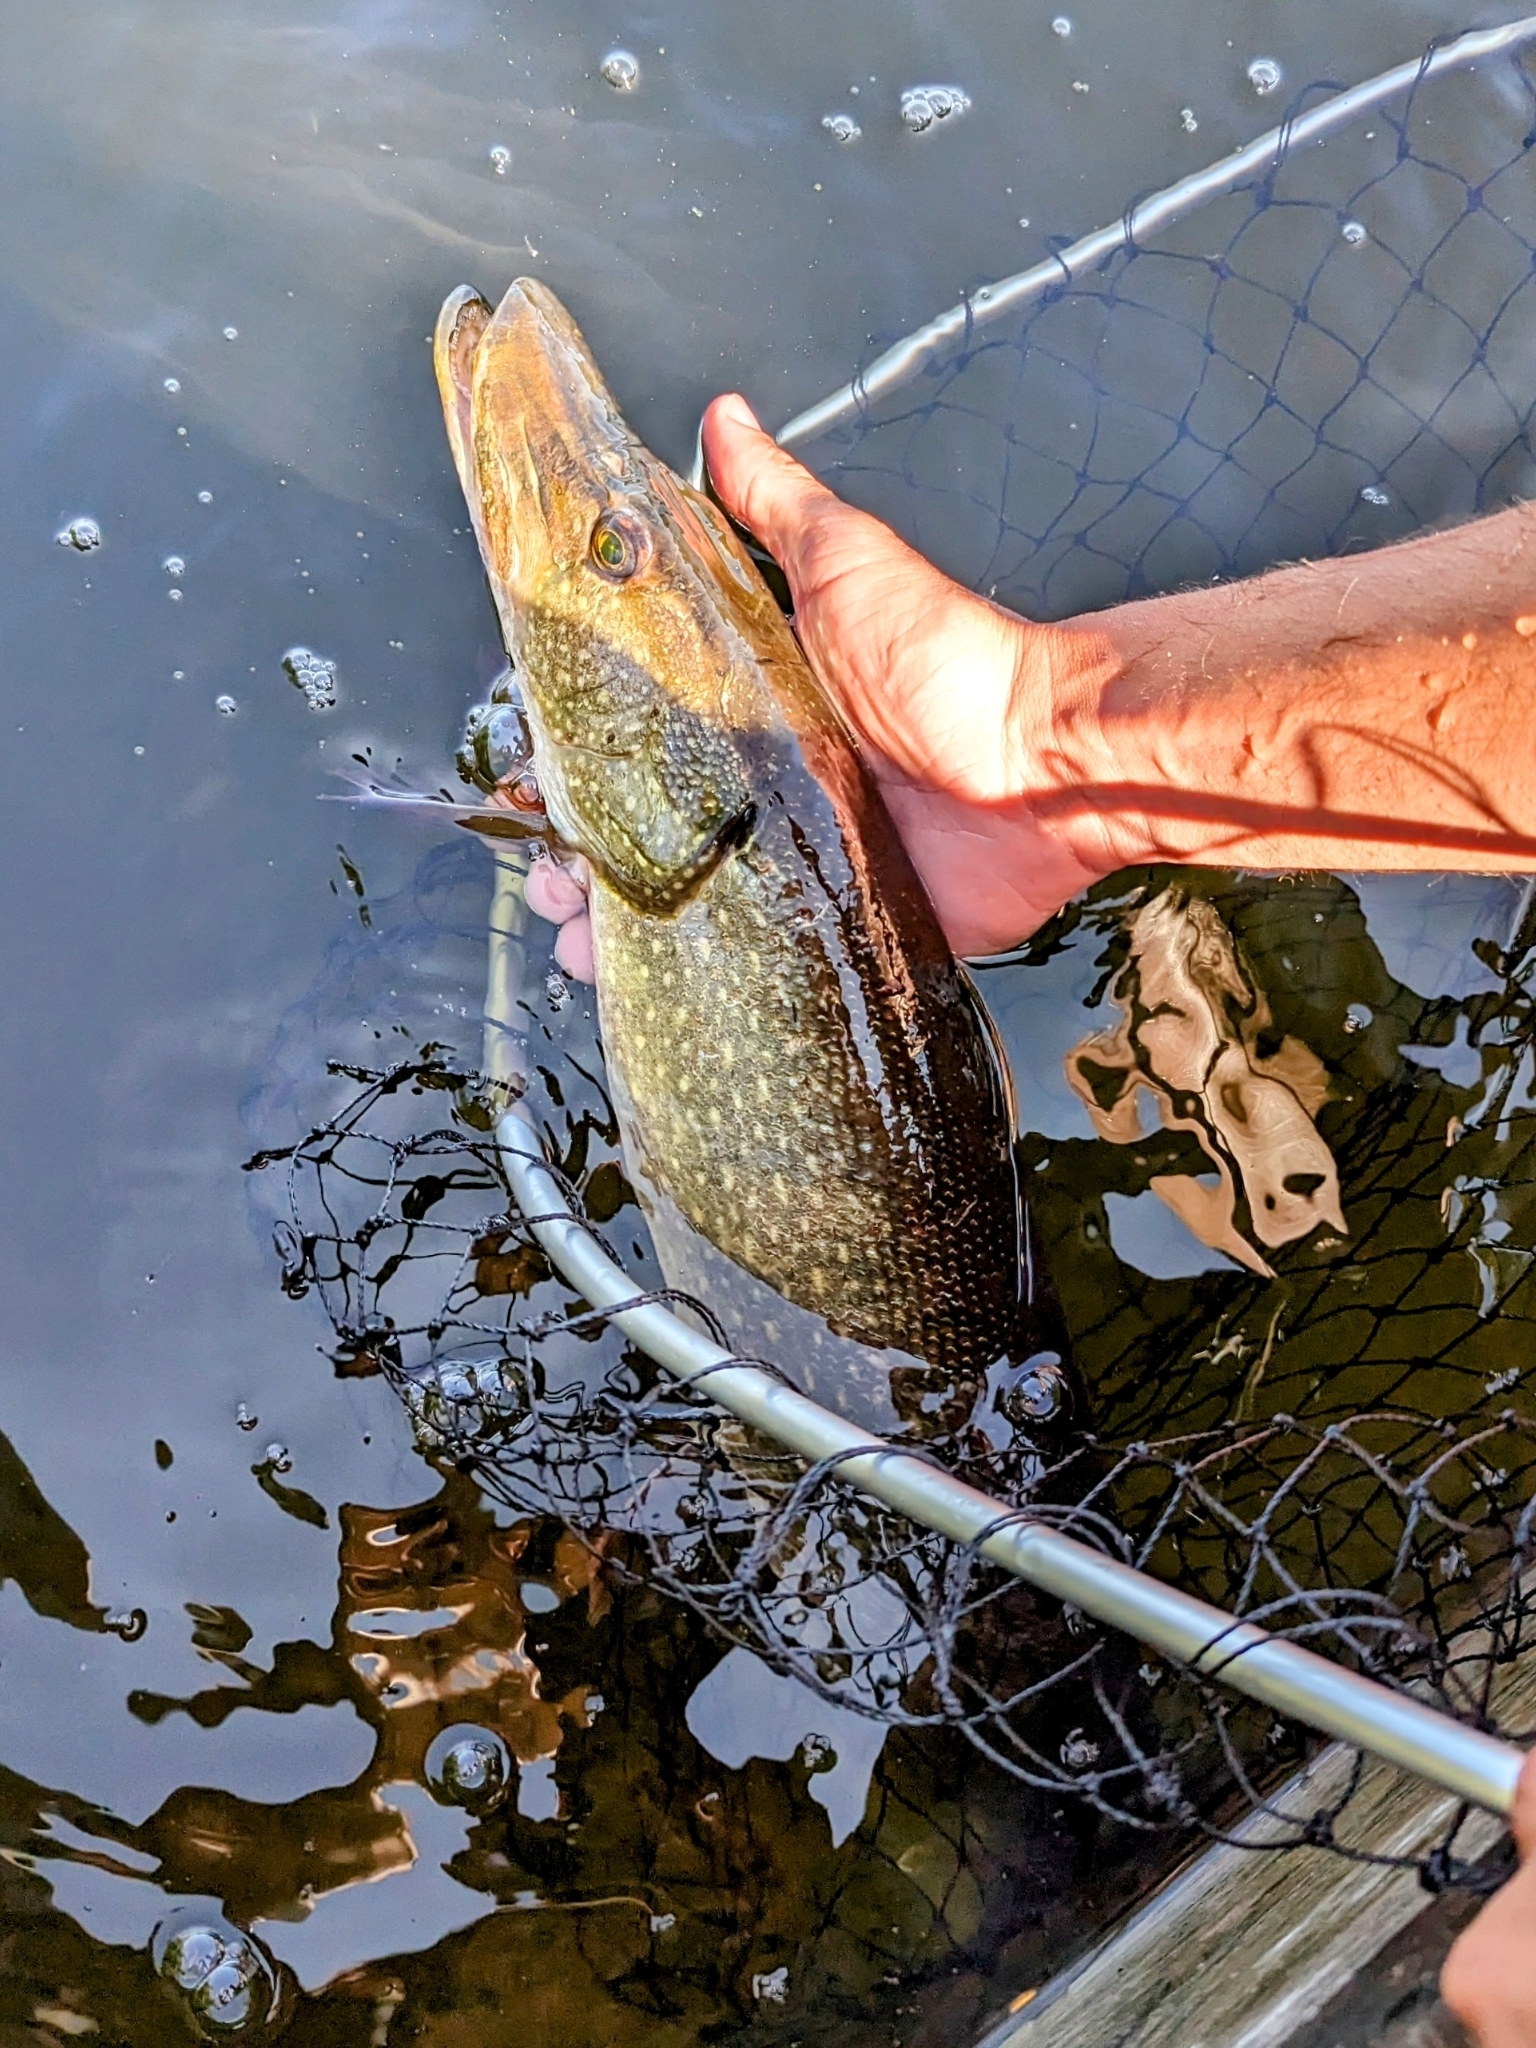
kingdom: Animalia
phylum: Chordata
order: Esociformes
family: Esocidae
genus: Esox
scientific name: Esox lucius
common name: Northern pike
